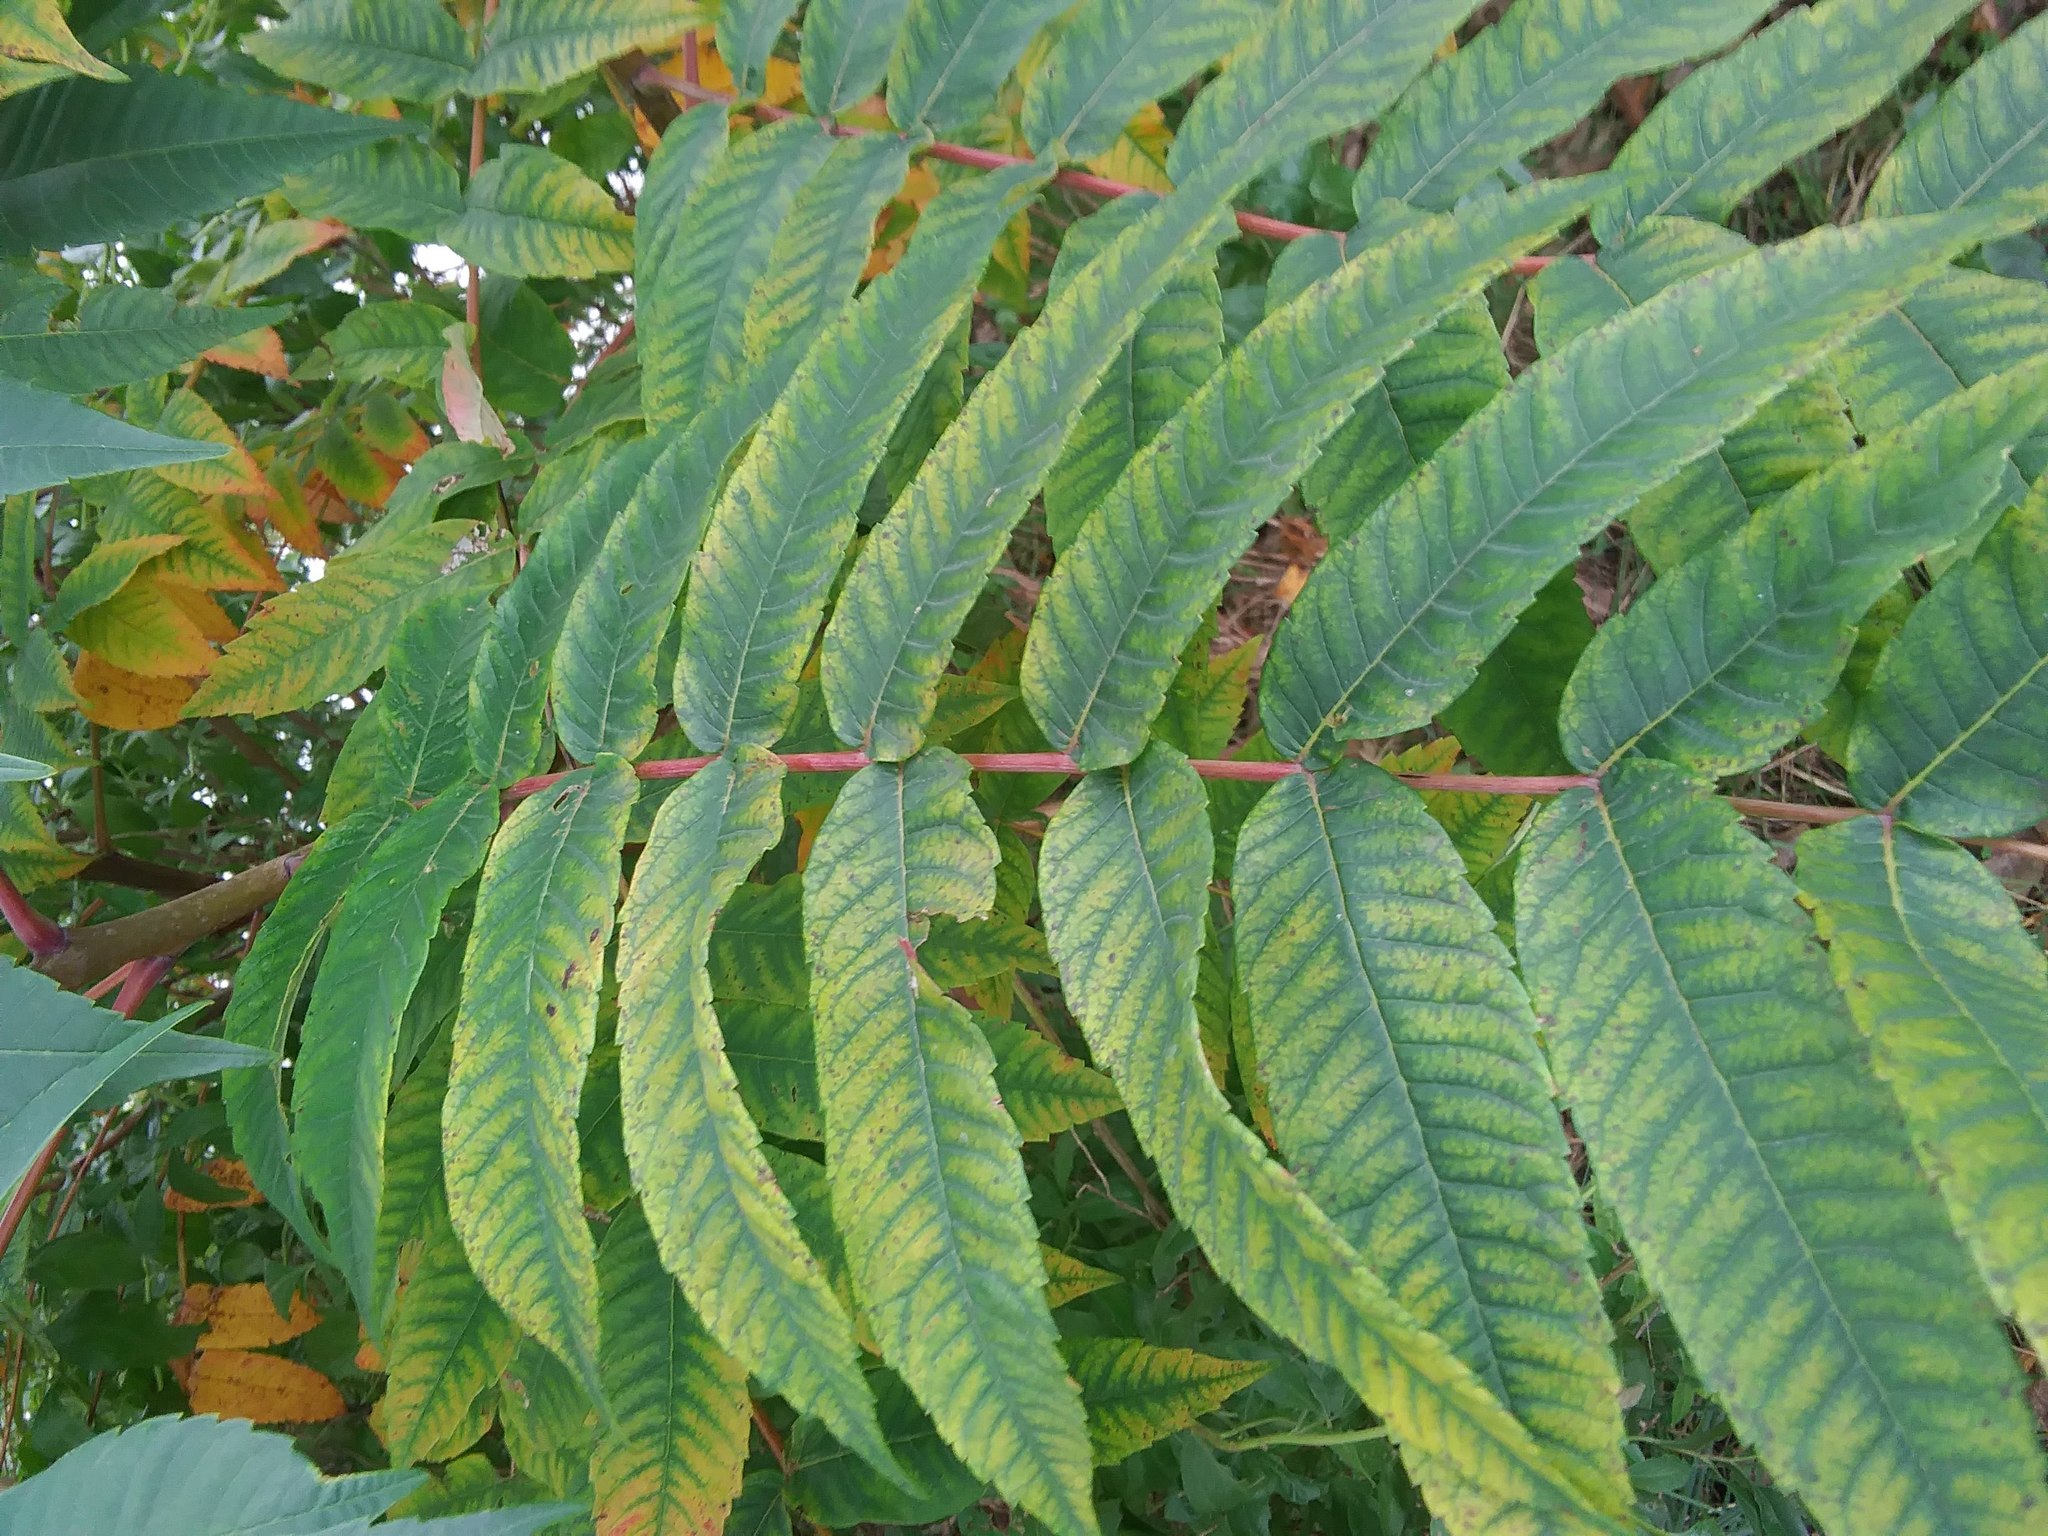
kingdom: Plantae
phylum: Tracheophyta
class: Magnoliopsida
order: Sapindales
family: Anacardiaceae
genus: Rhus
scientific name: Rhus glabra
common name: Scarlet sumac
